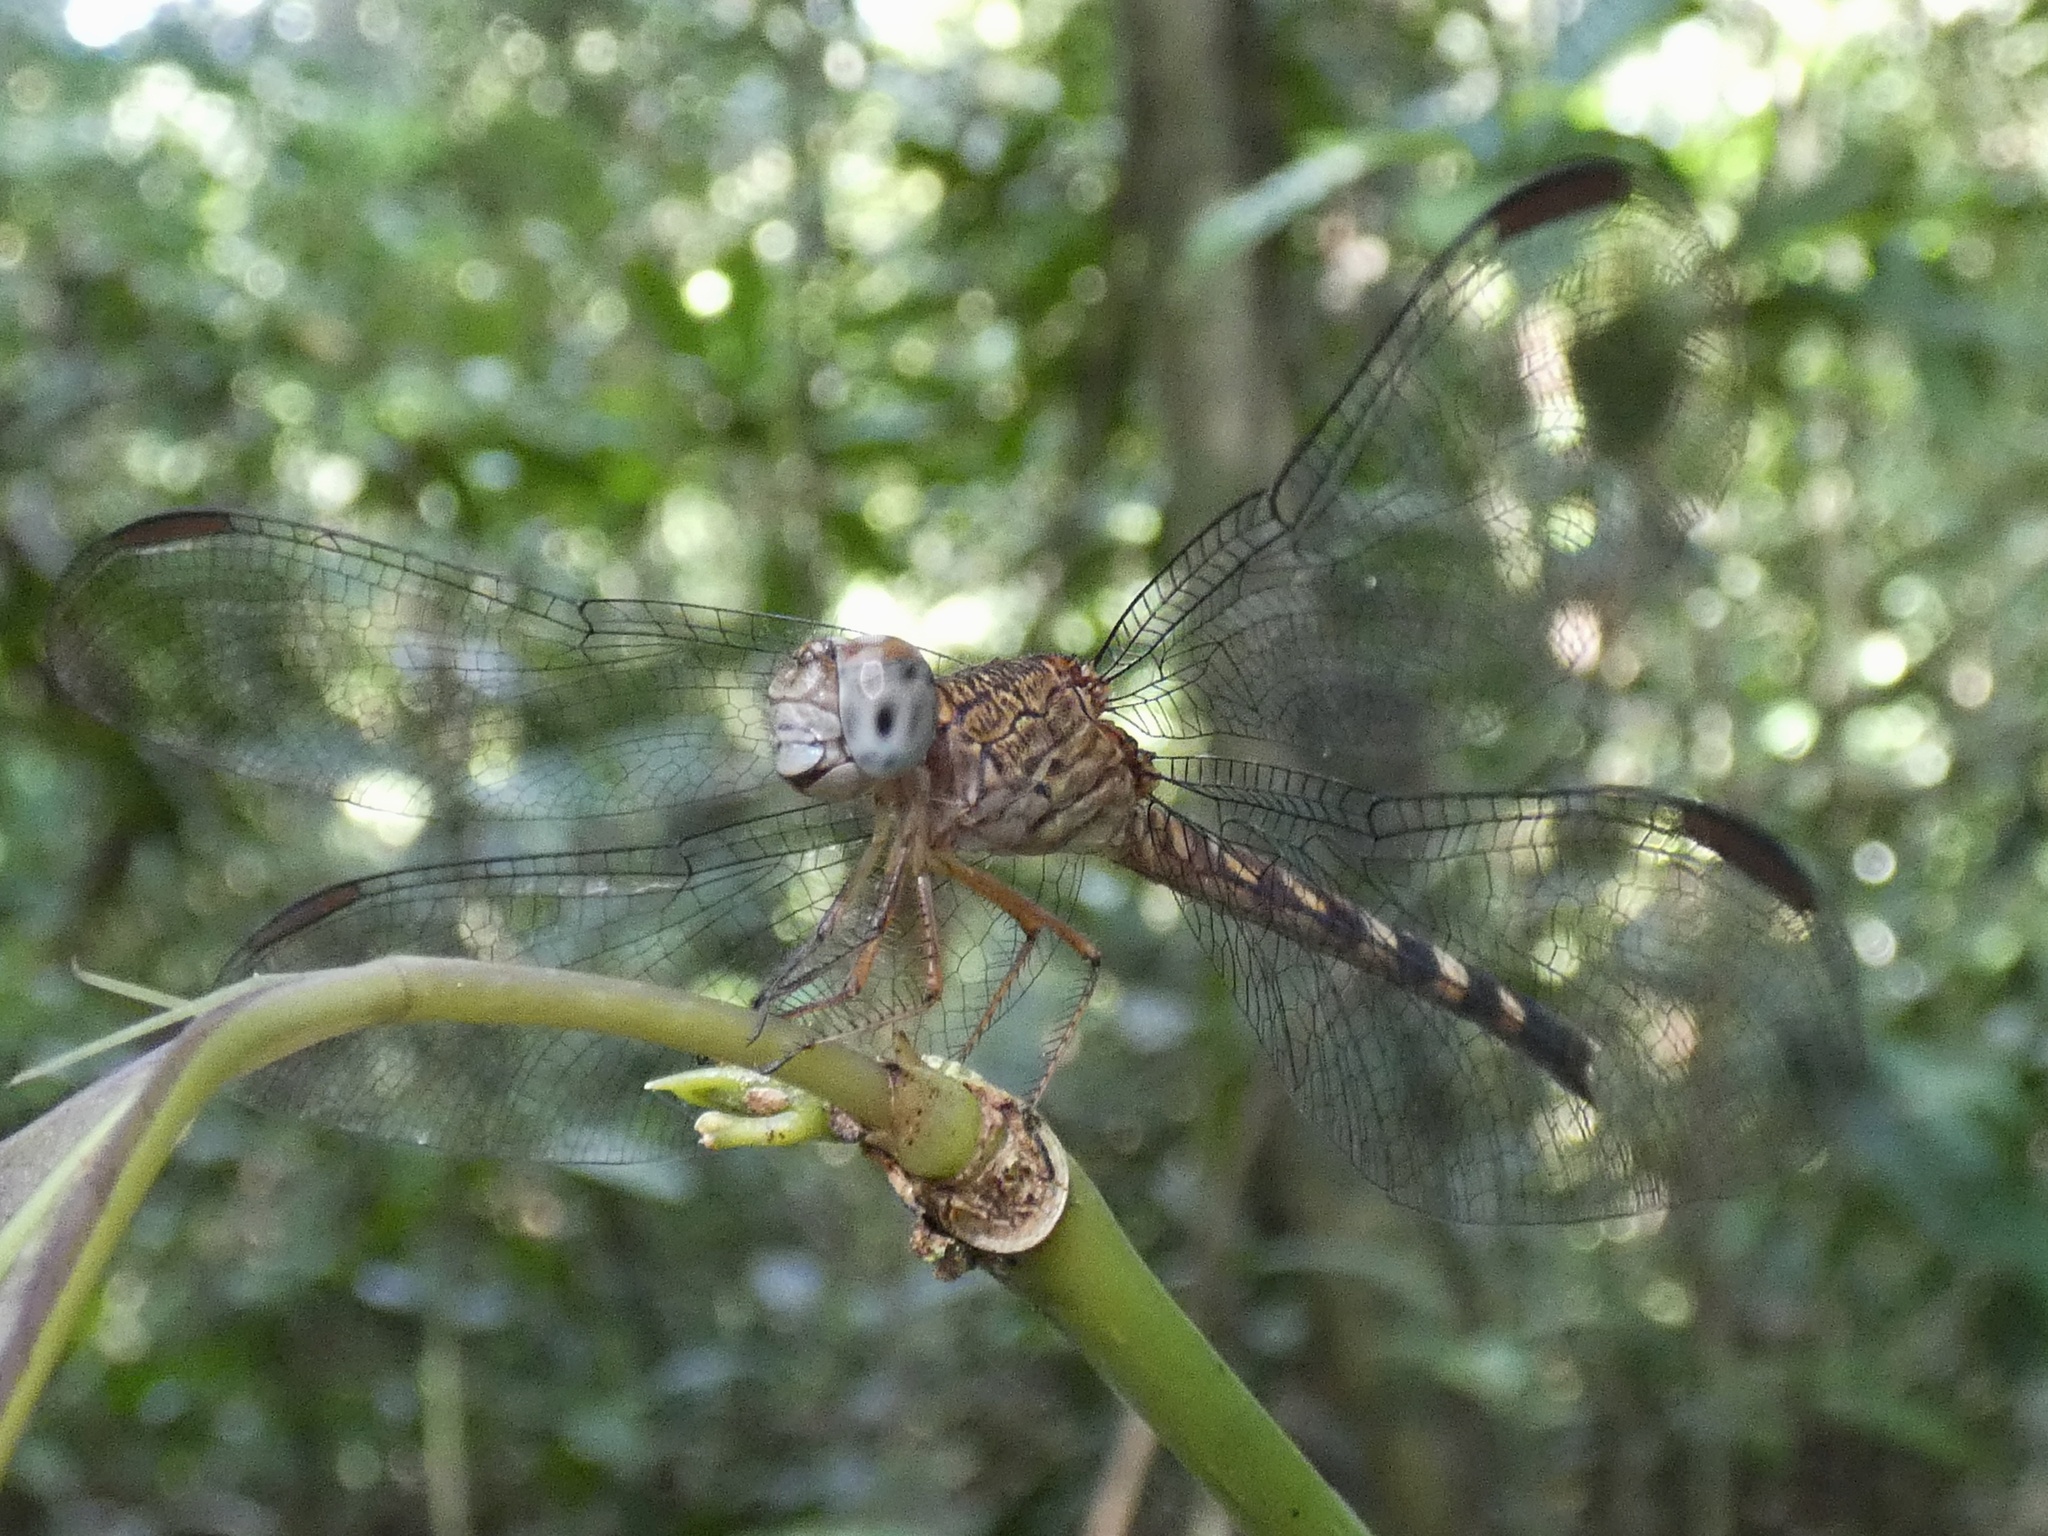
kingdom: Animalia
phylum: Arthropoda
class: Insecta
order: Odonata
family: Libellulidae
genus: Uracis
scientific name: Uracis fastigiata
